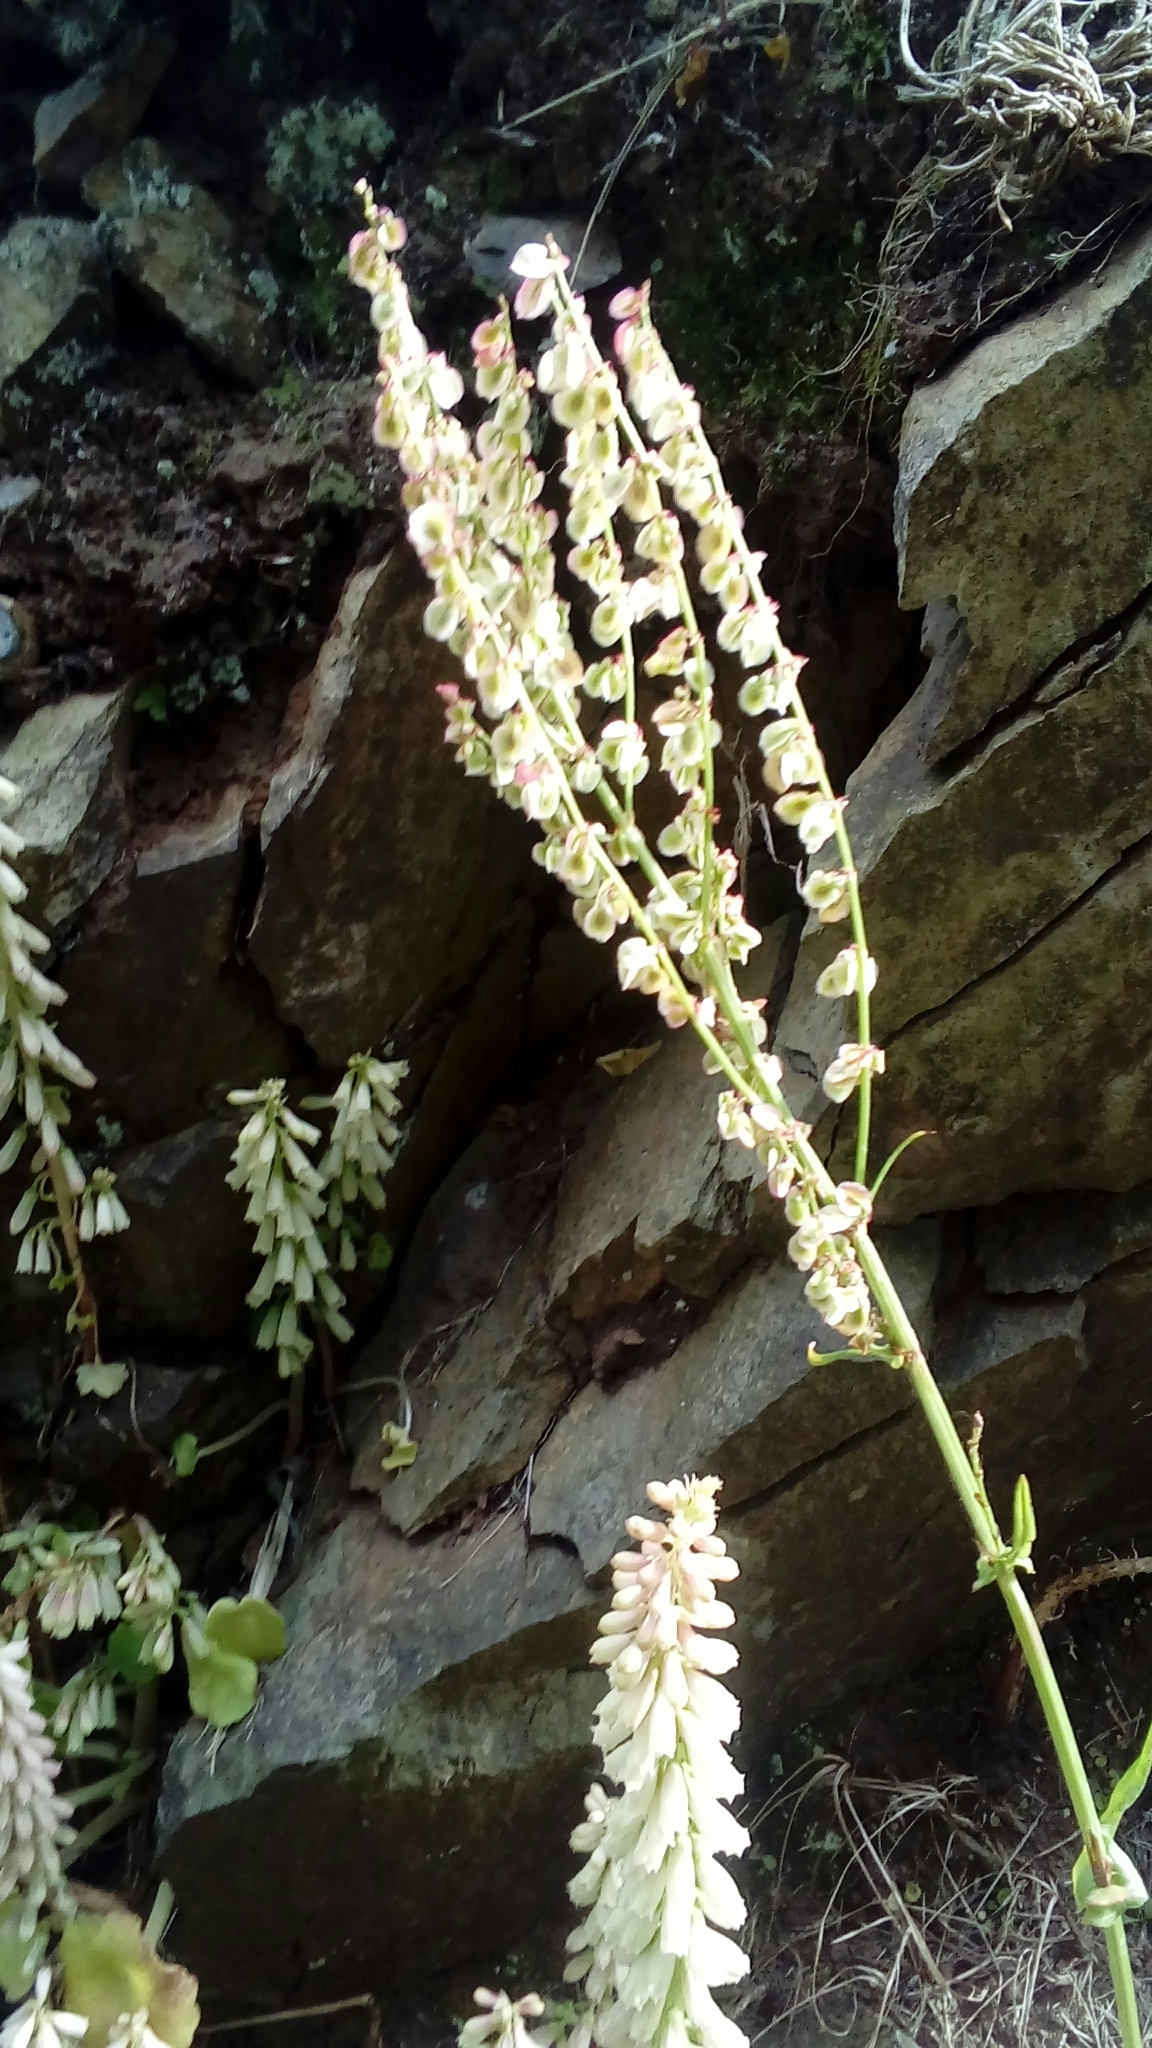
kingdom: Plantae
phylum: Tracheophyta
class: Magnoliopsida
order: Caryophyllales
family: Polygonaceae
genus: Rumex
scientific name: Rumex acetosa
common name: Garden sorrel
